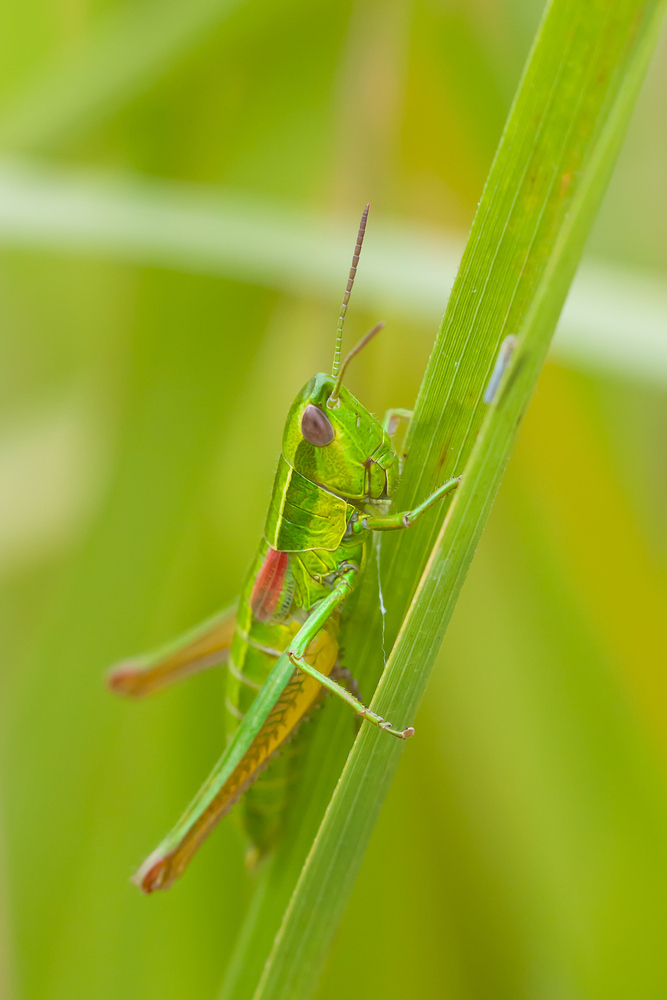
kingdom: Animalia
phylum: Arthropoda
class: Insecta
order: Orthoptera
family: Acrididae
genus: Euthystira
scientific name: Euthystira brachyptera
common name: Small gold grasshopper
